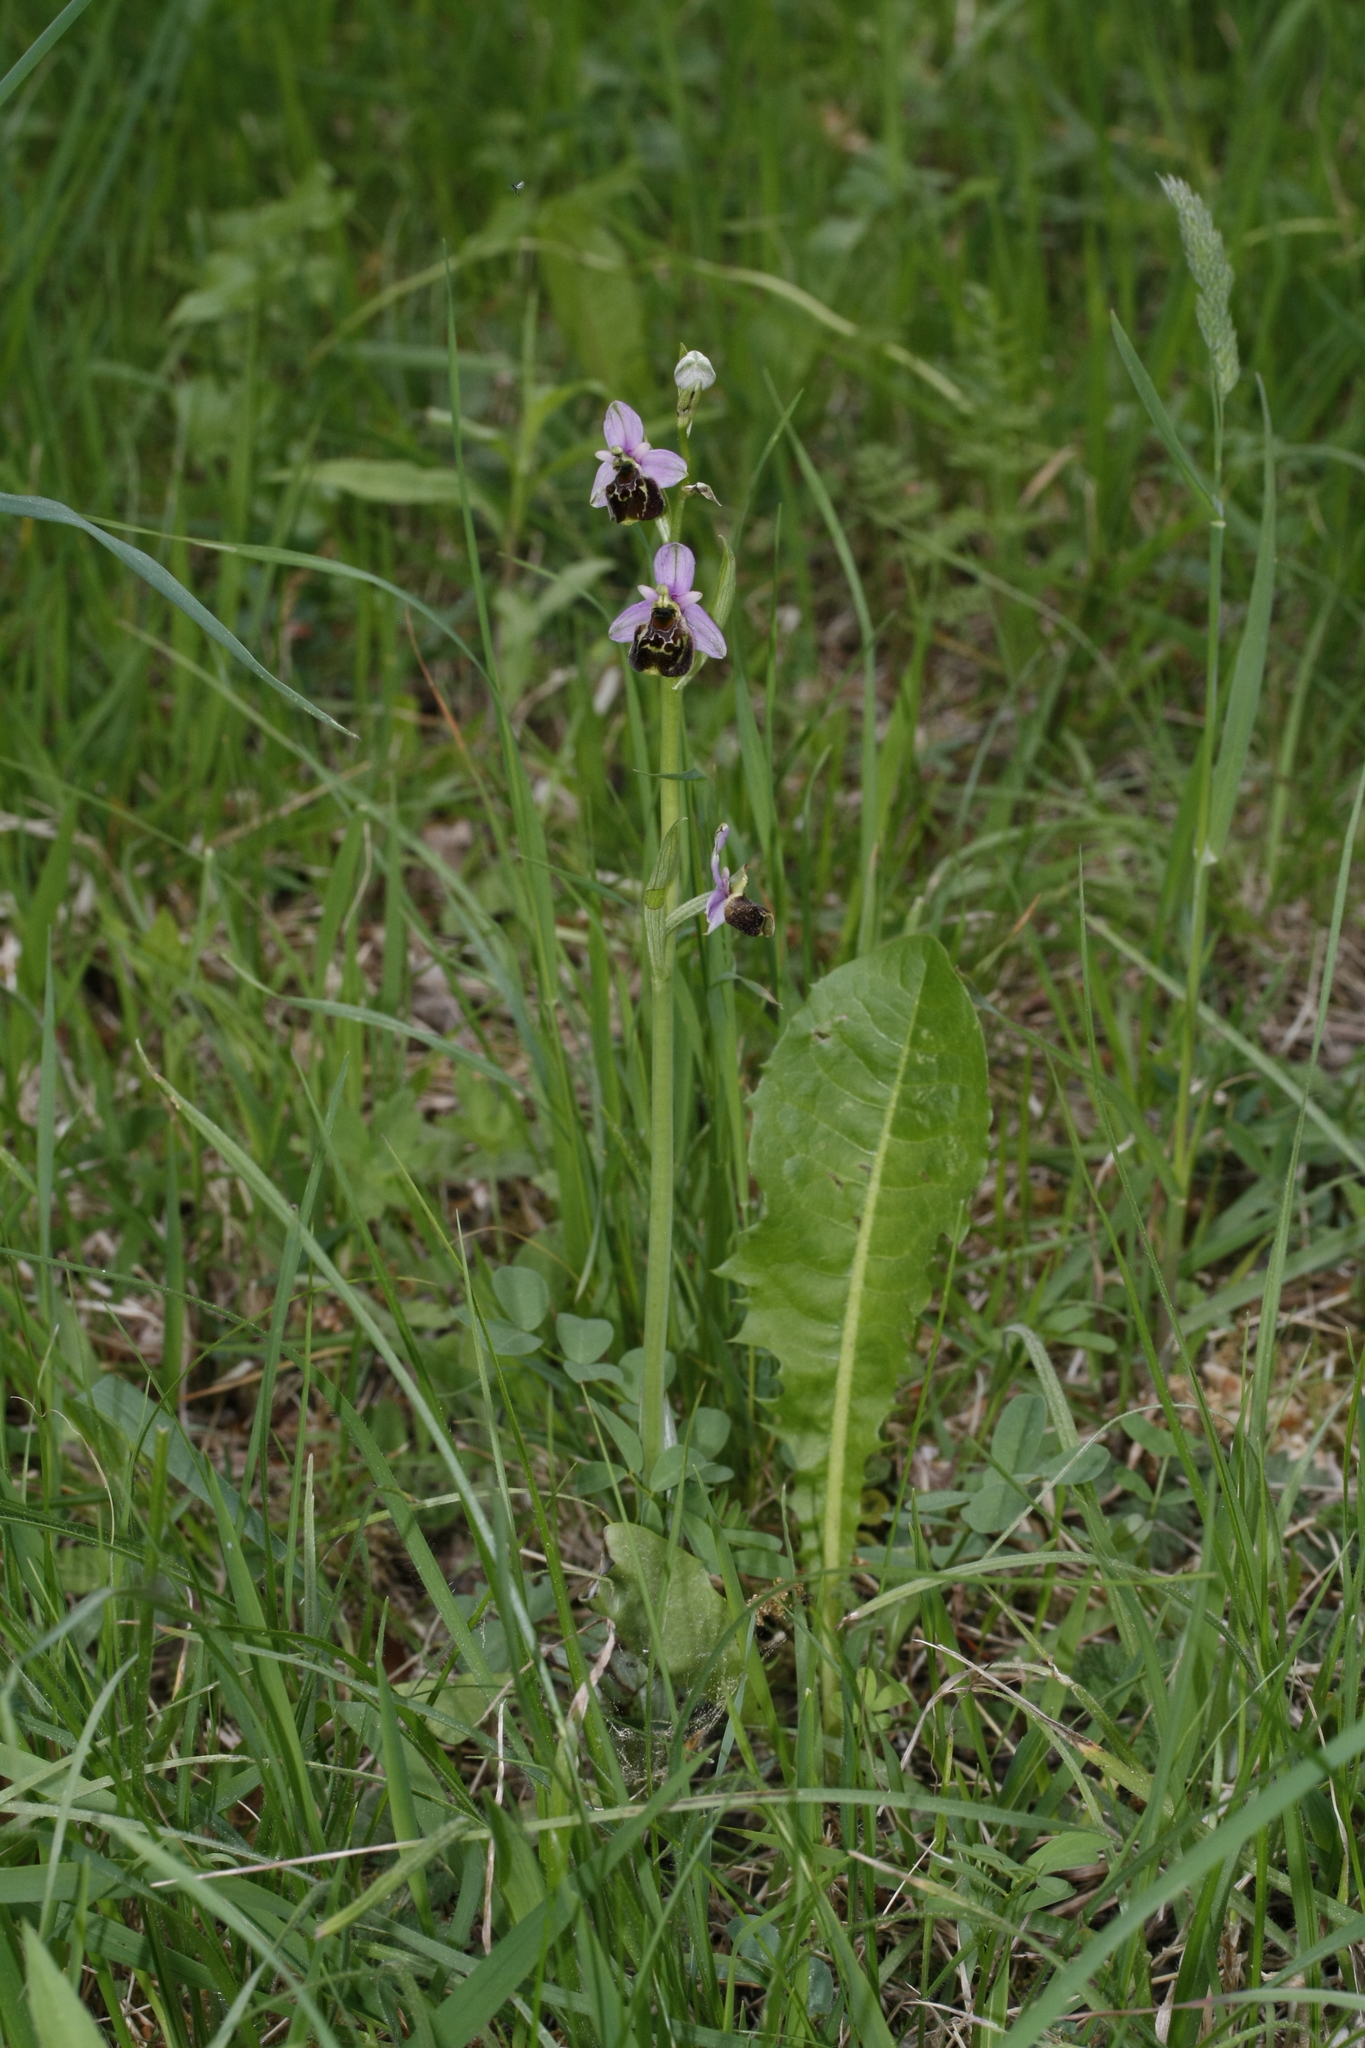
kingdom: Plantae
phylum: Tracheophyta
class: Liliopsida
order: Asparagales
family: Orchidaceae
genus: Ophrys
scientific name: Ophrys holosericea
